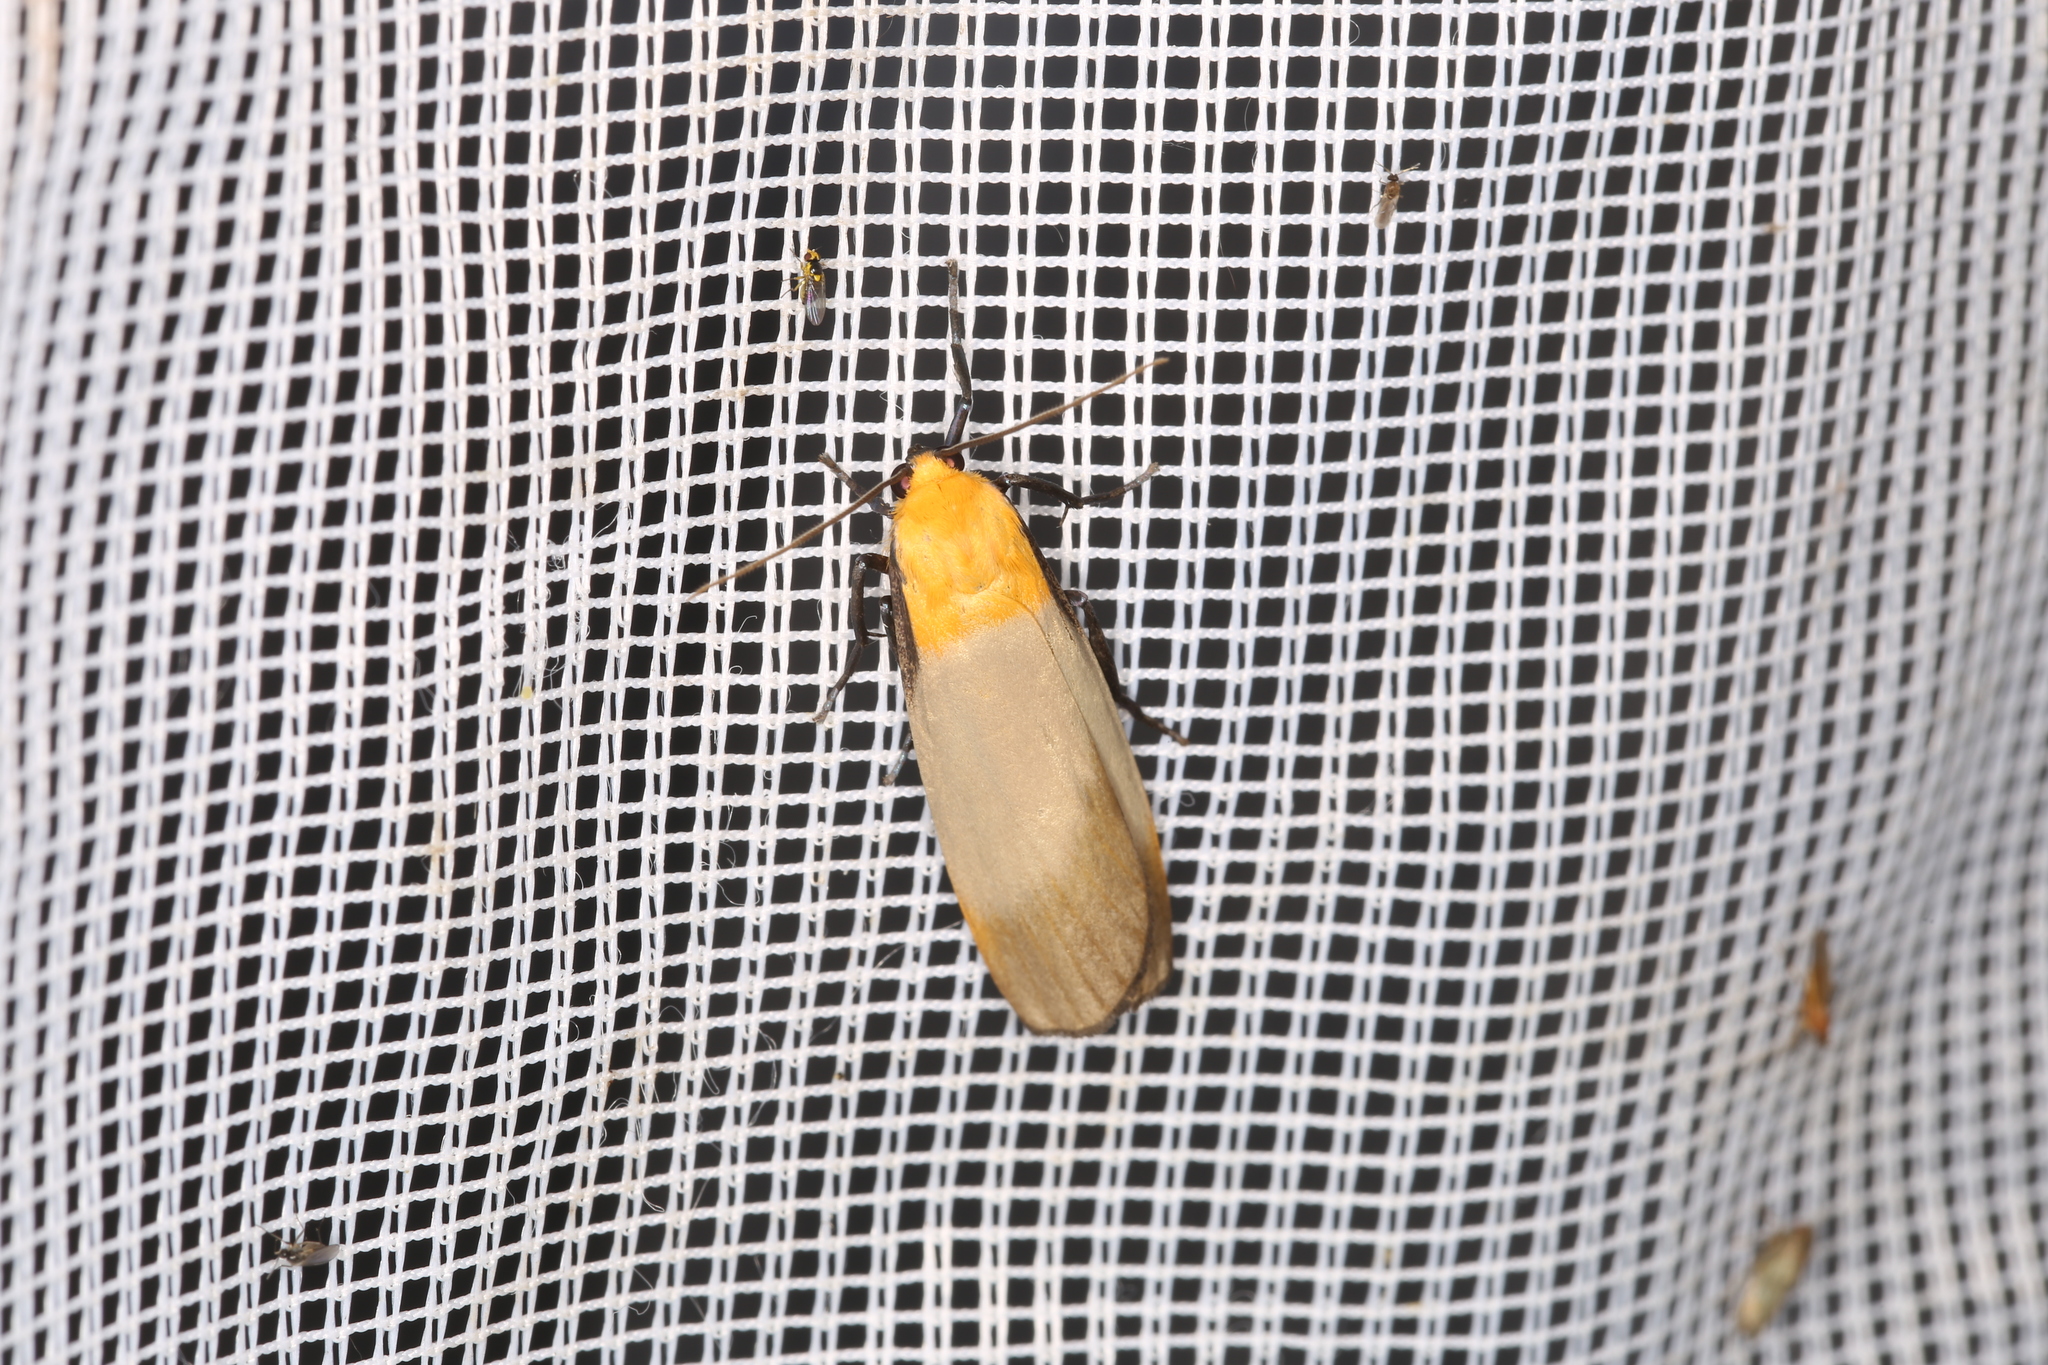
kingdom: Animalia
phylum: Arthropoda
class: Insecta
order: Lepidoptera
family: Erebidae
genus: Lithosia
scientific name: Lithosia quadra
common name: Four-spotted footman
